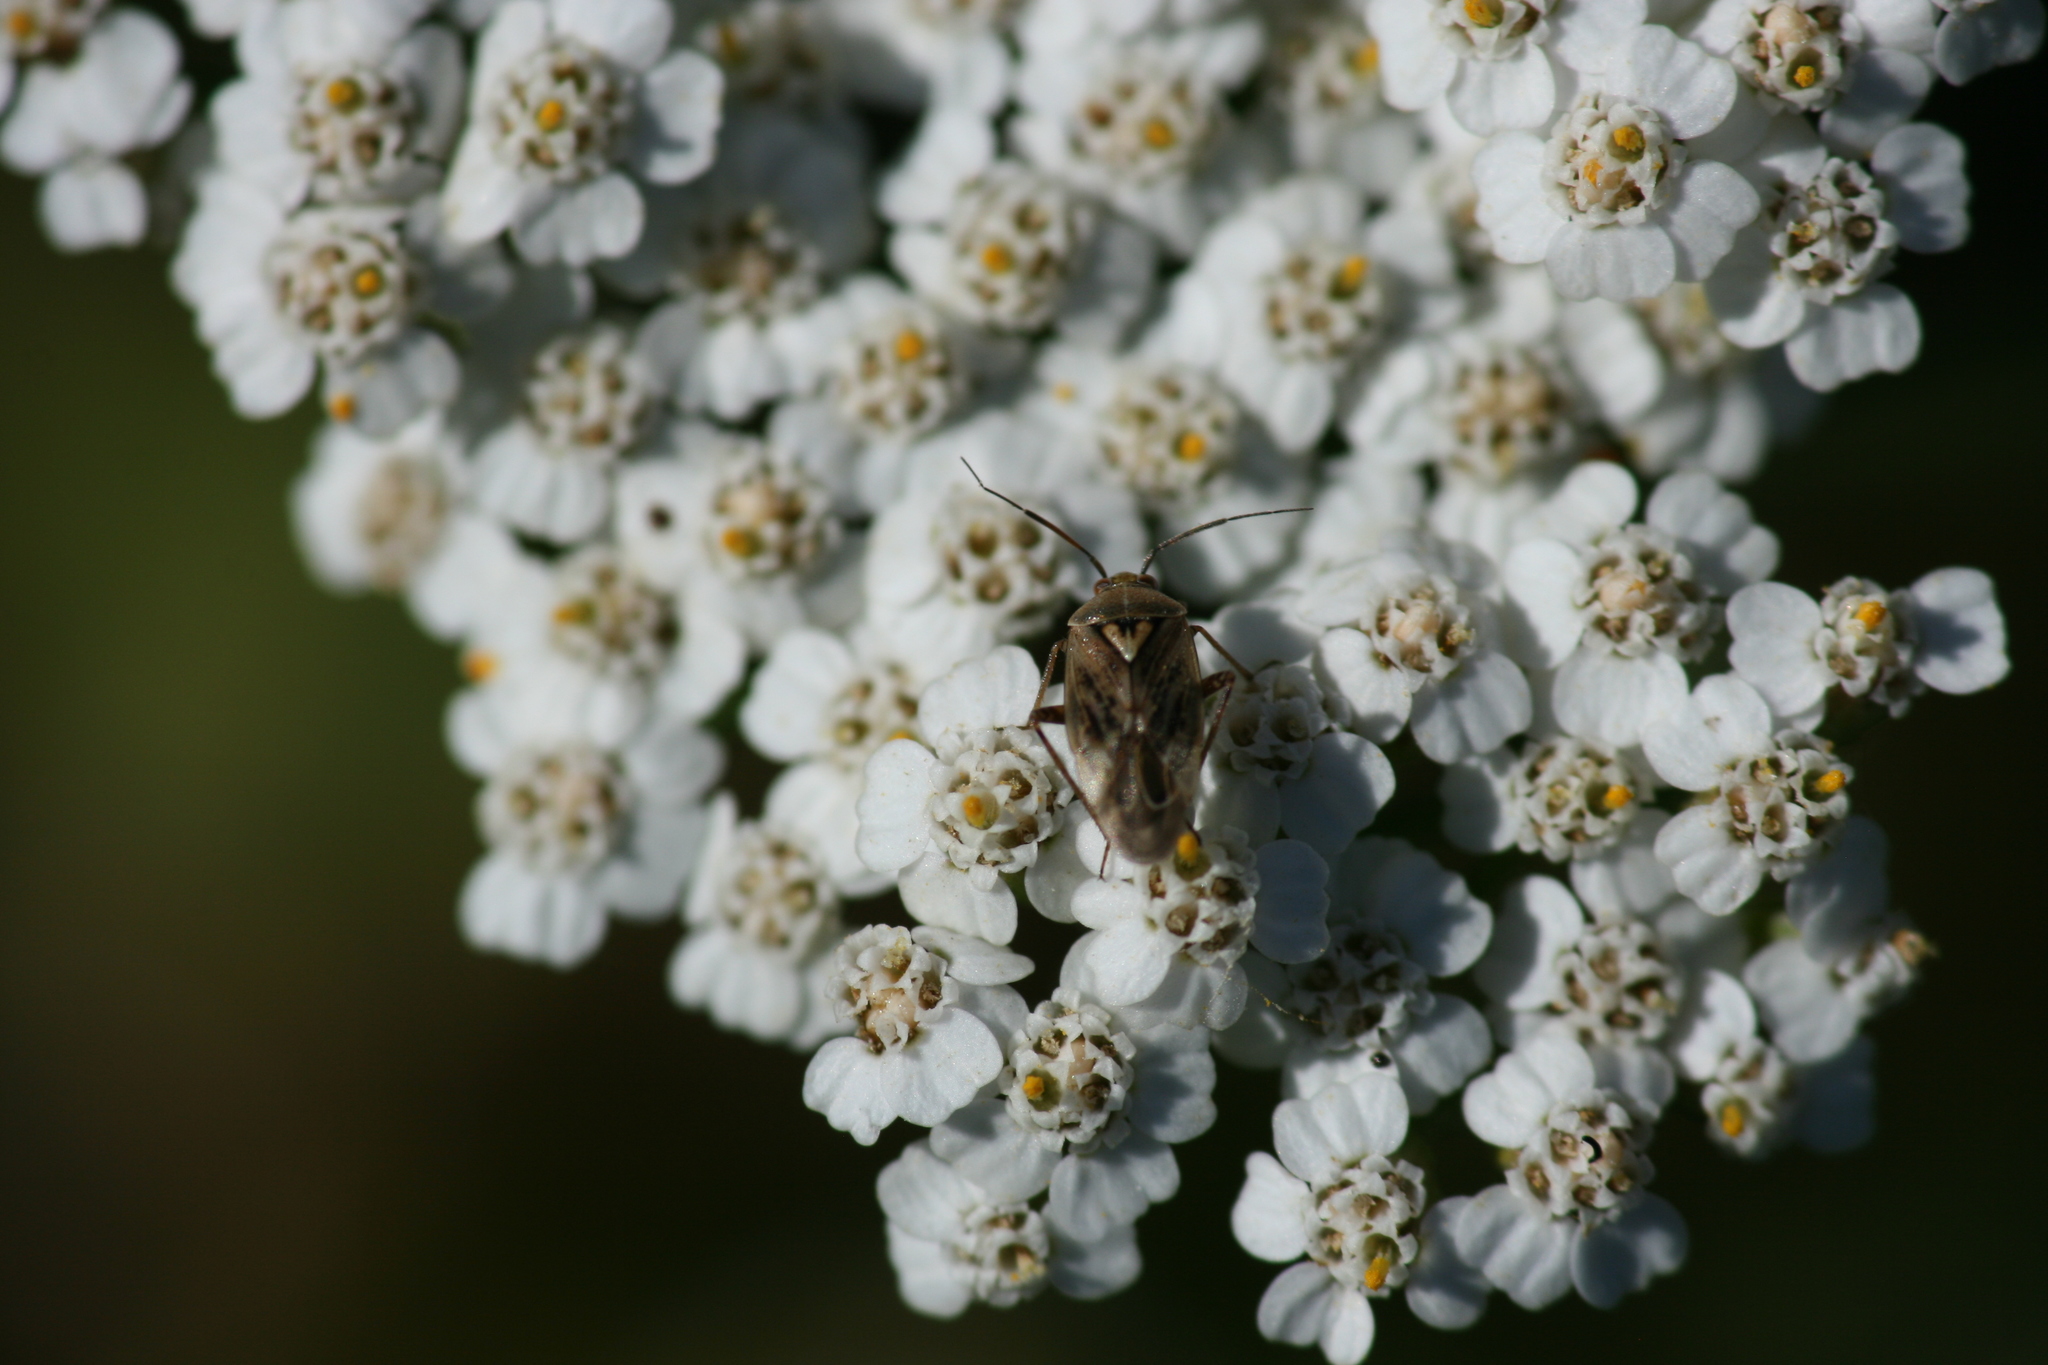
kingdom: Animalia
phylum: Arthropoda
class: Insecta
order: Hemiptera
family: Miridae
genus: Lygus
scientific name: Lygus rugulipennis
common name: European tarnished plant bug
